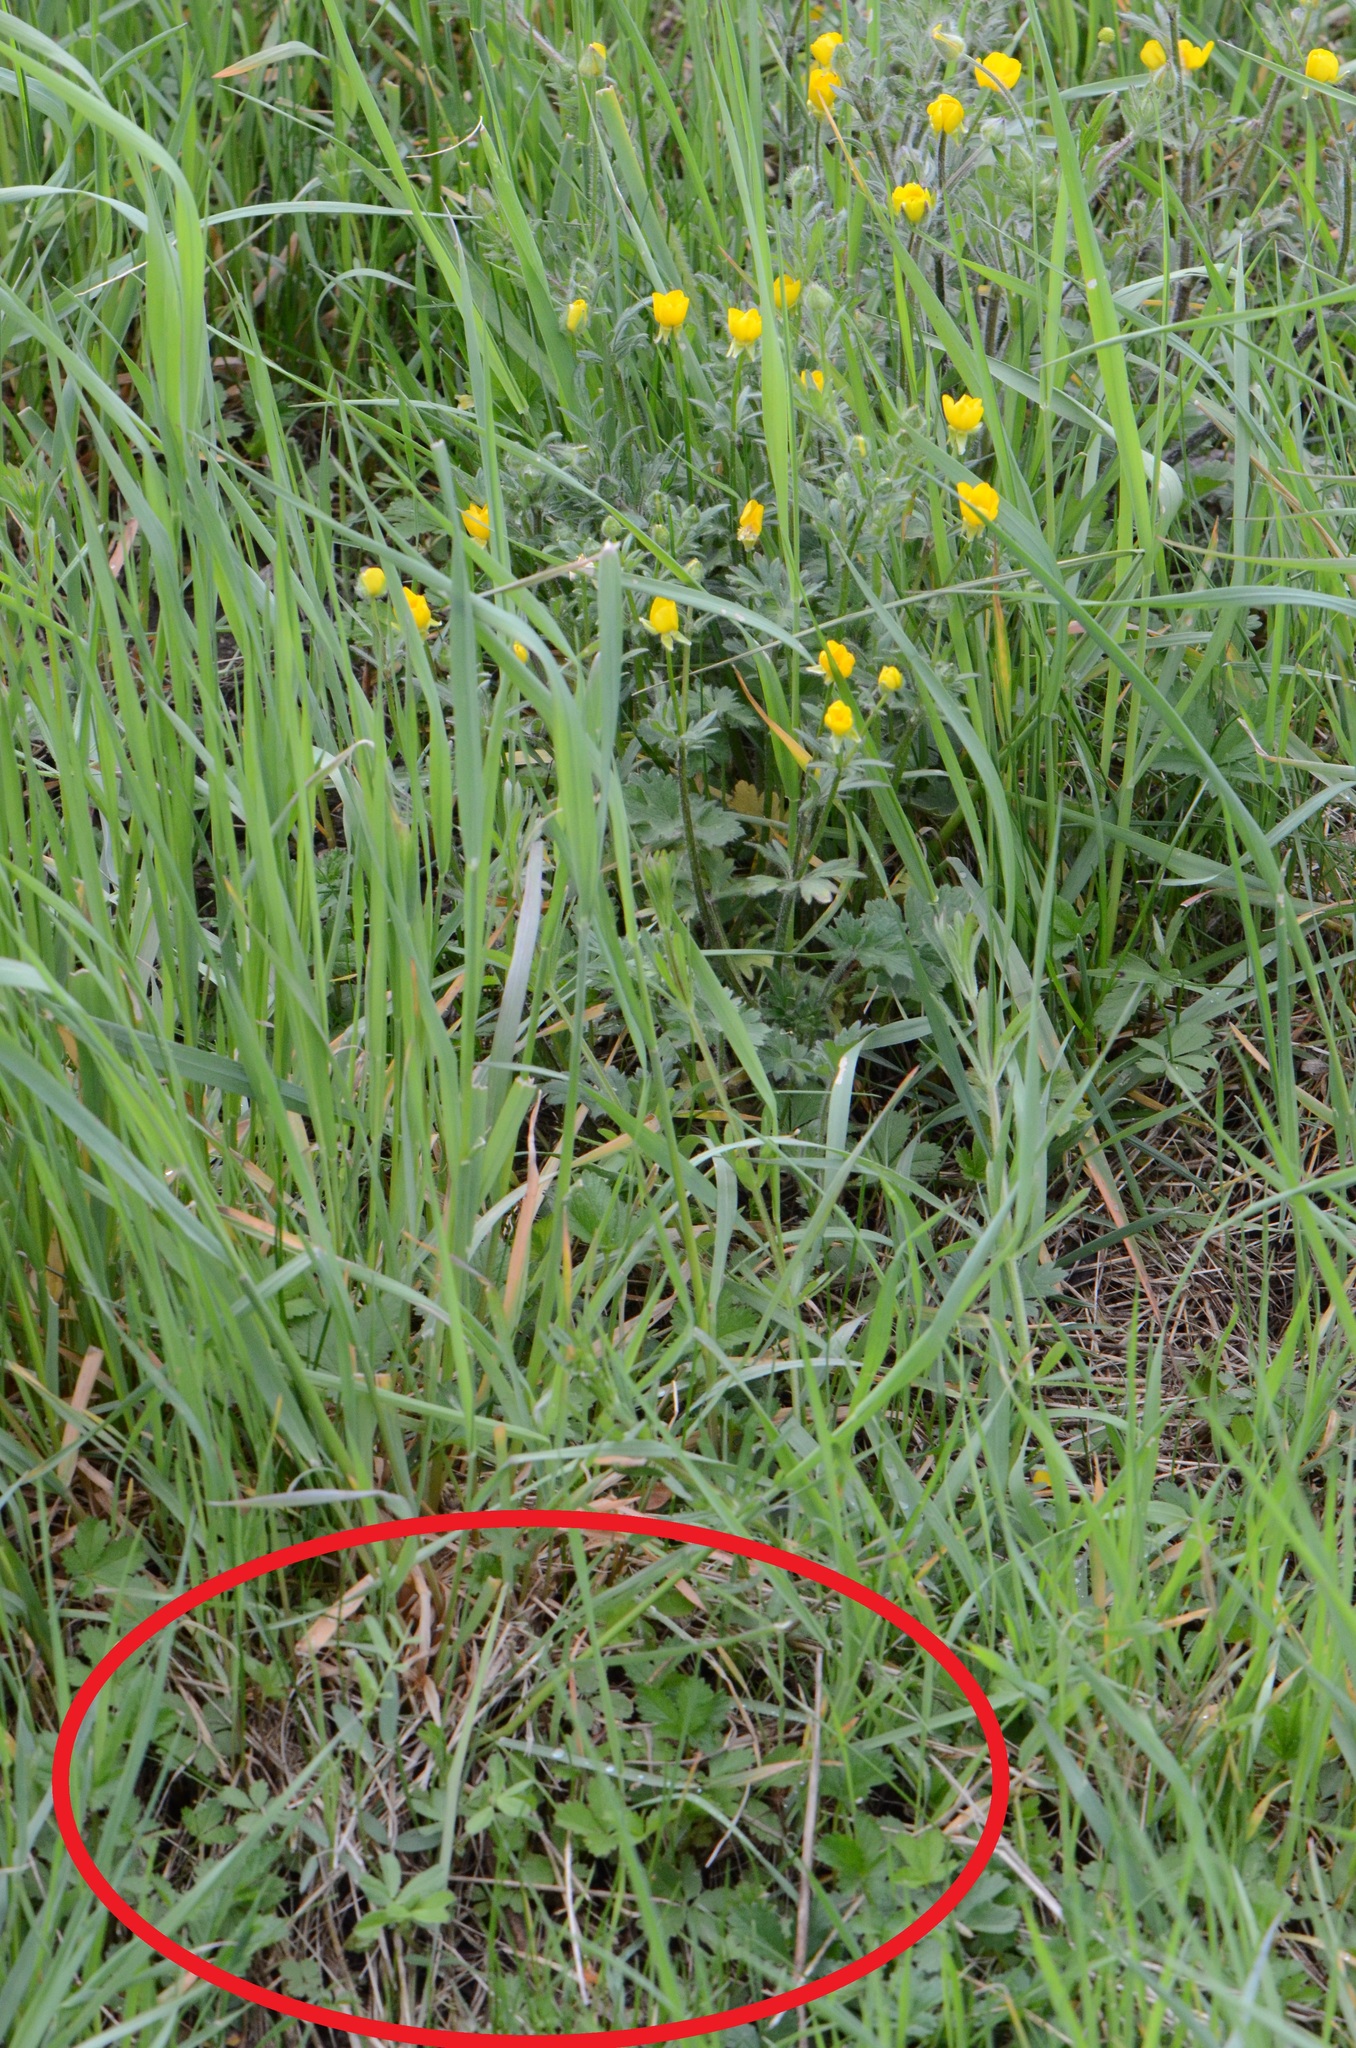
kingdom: Plantae
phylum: Tracheophyta
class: Magnoliopsida
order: Rosales
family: Rosaceae
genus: Potentilla
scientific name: Potentilla reptans
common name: Creeping cinquefoil
